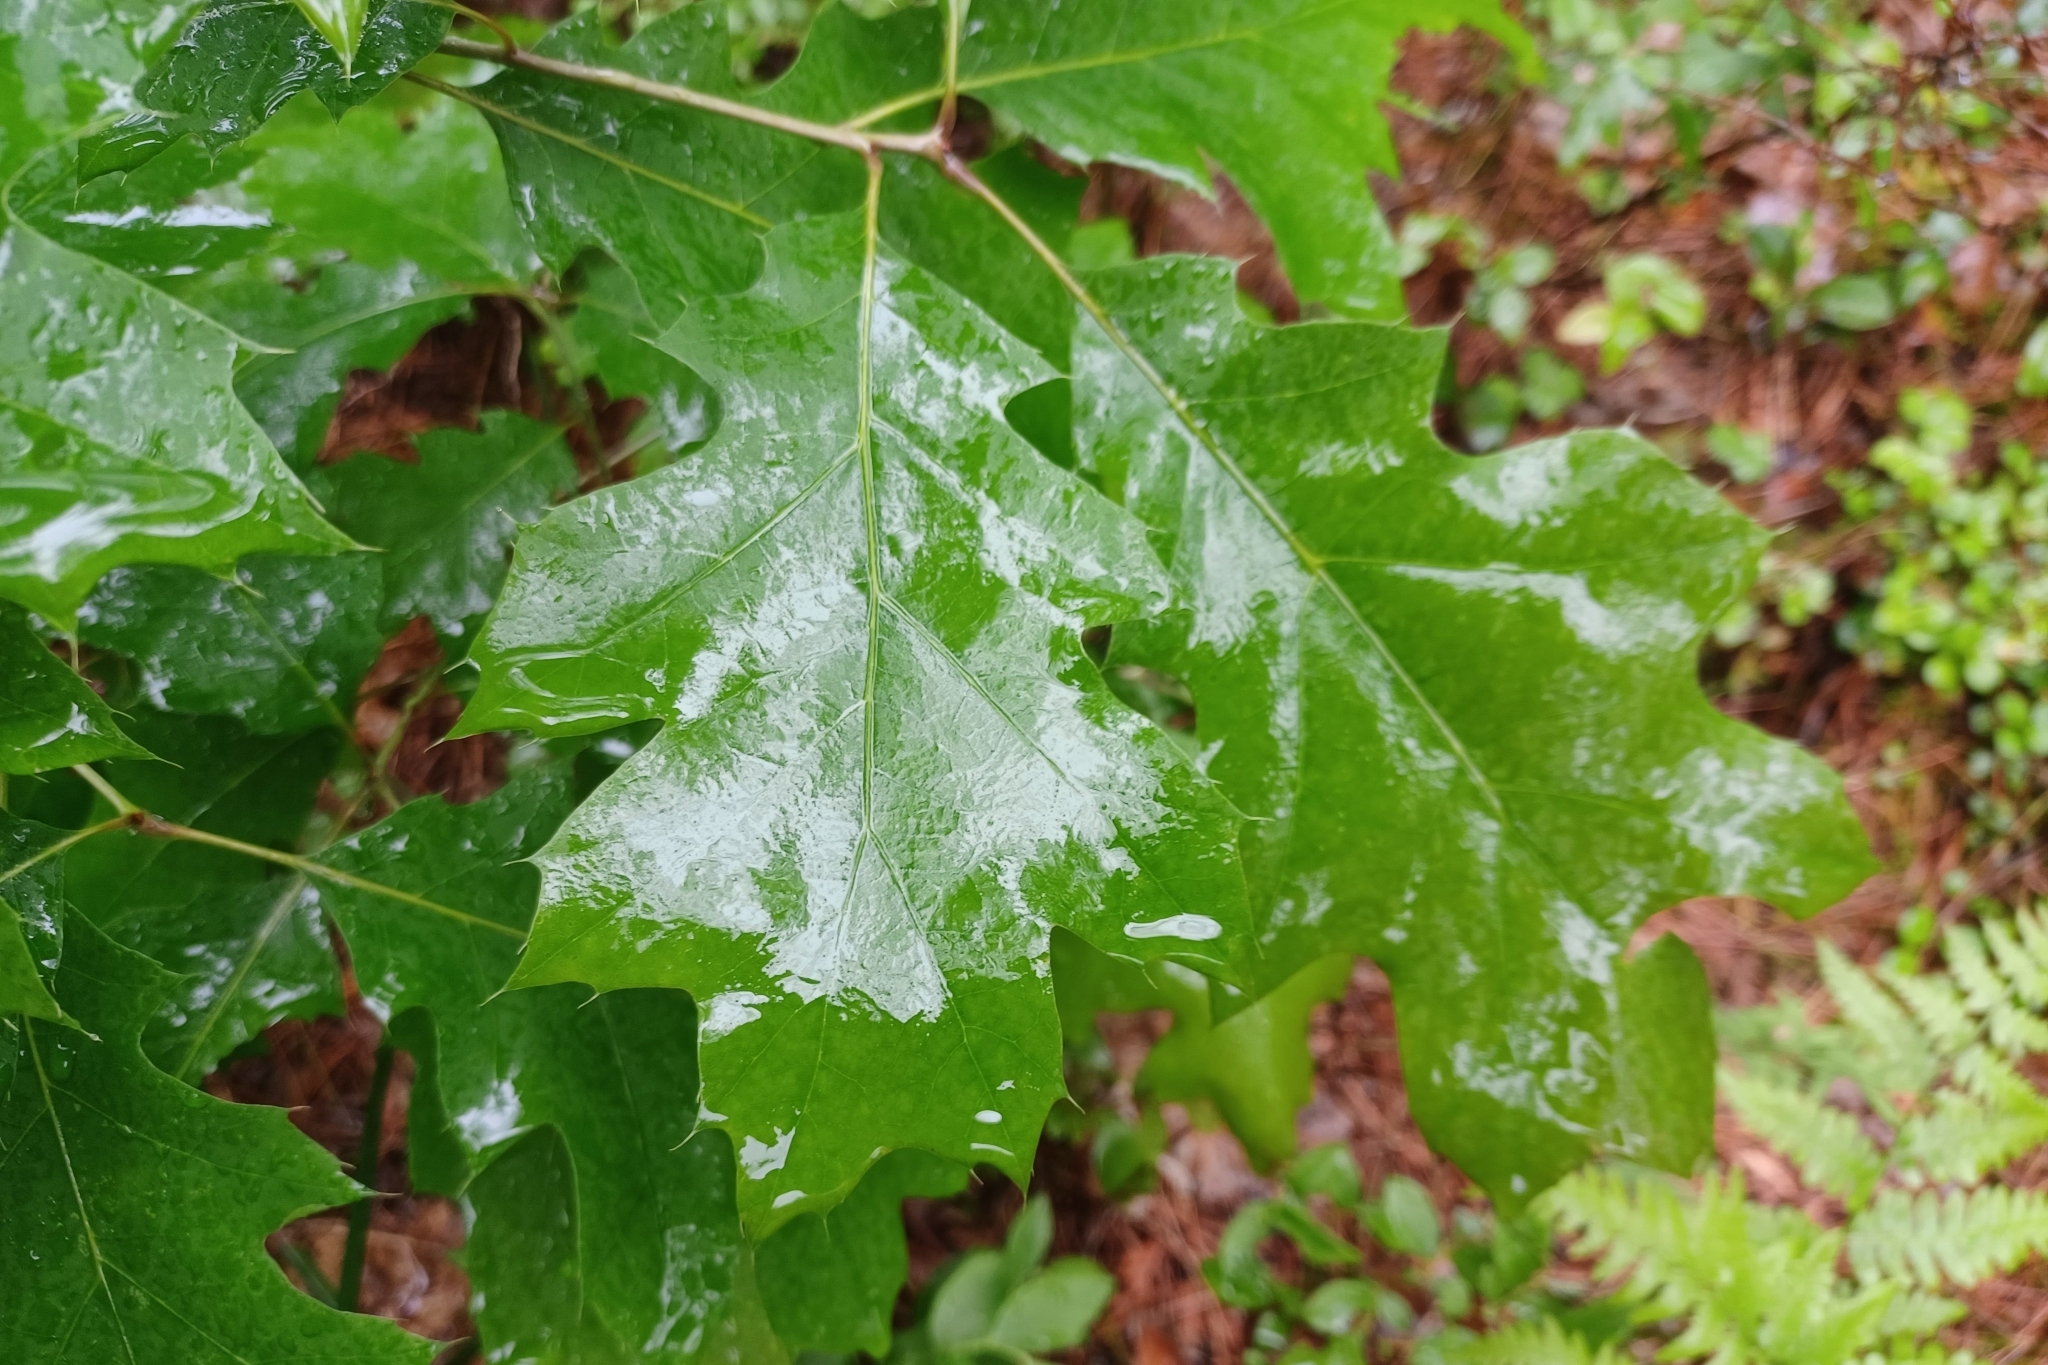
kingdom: Plantae
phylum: Tracheophyta
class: Magnoliopsida
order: Fagales
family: Fagaceae
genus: Quercus
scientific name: Quercus rubra
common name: Red oak
